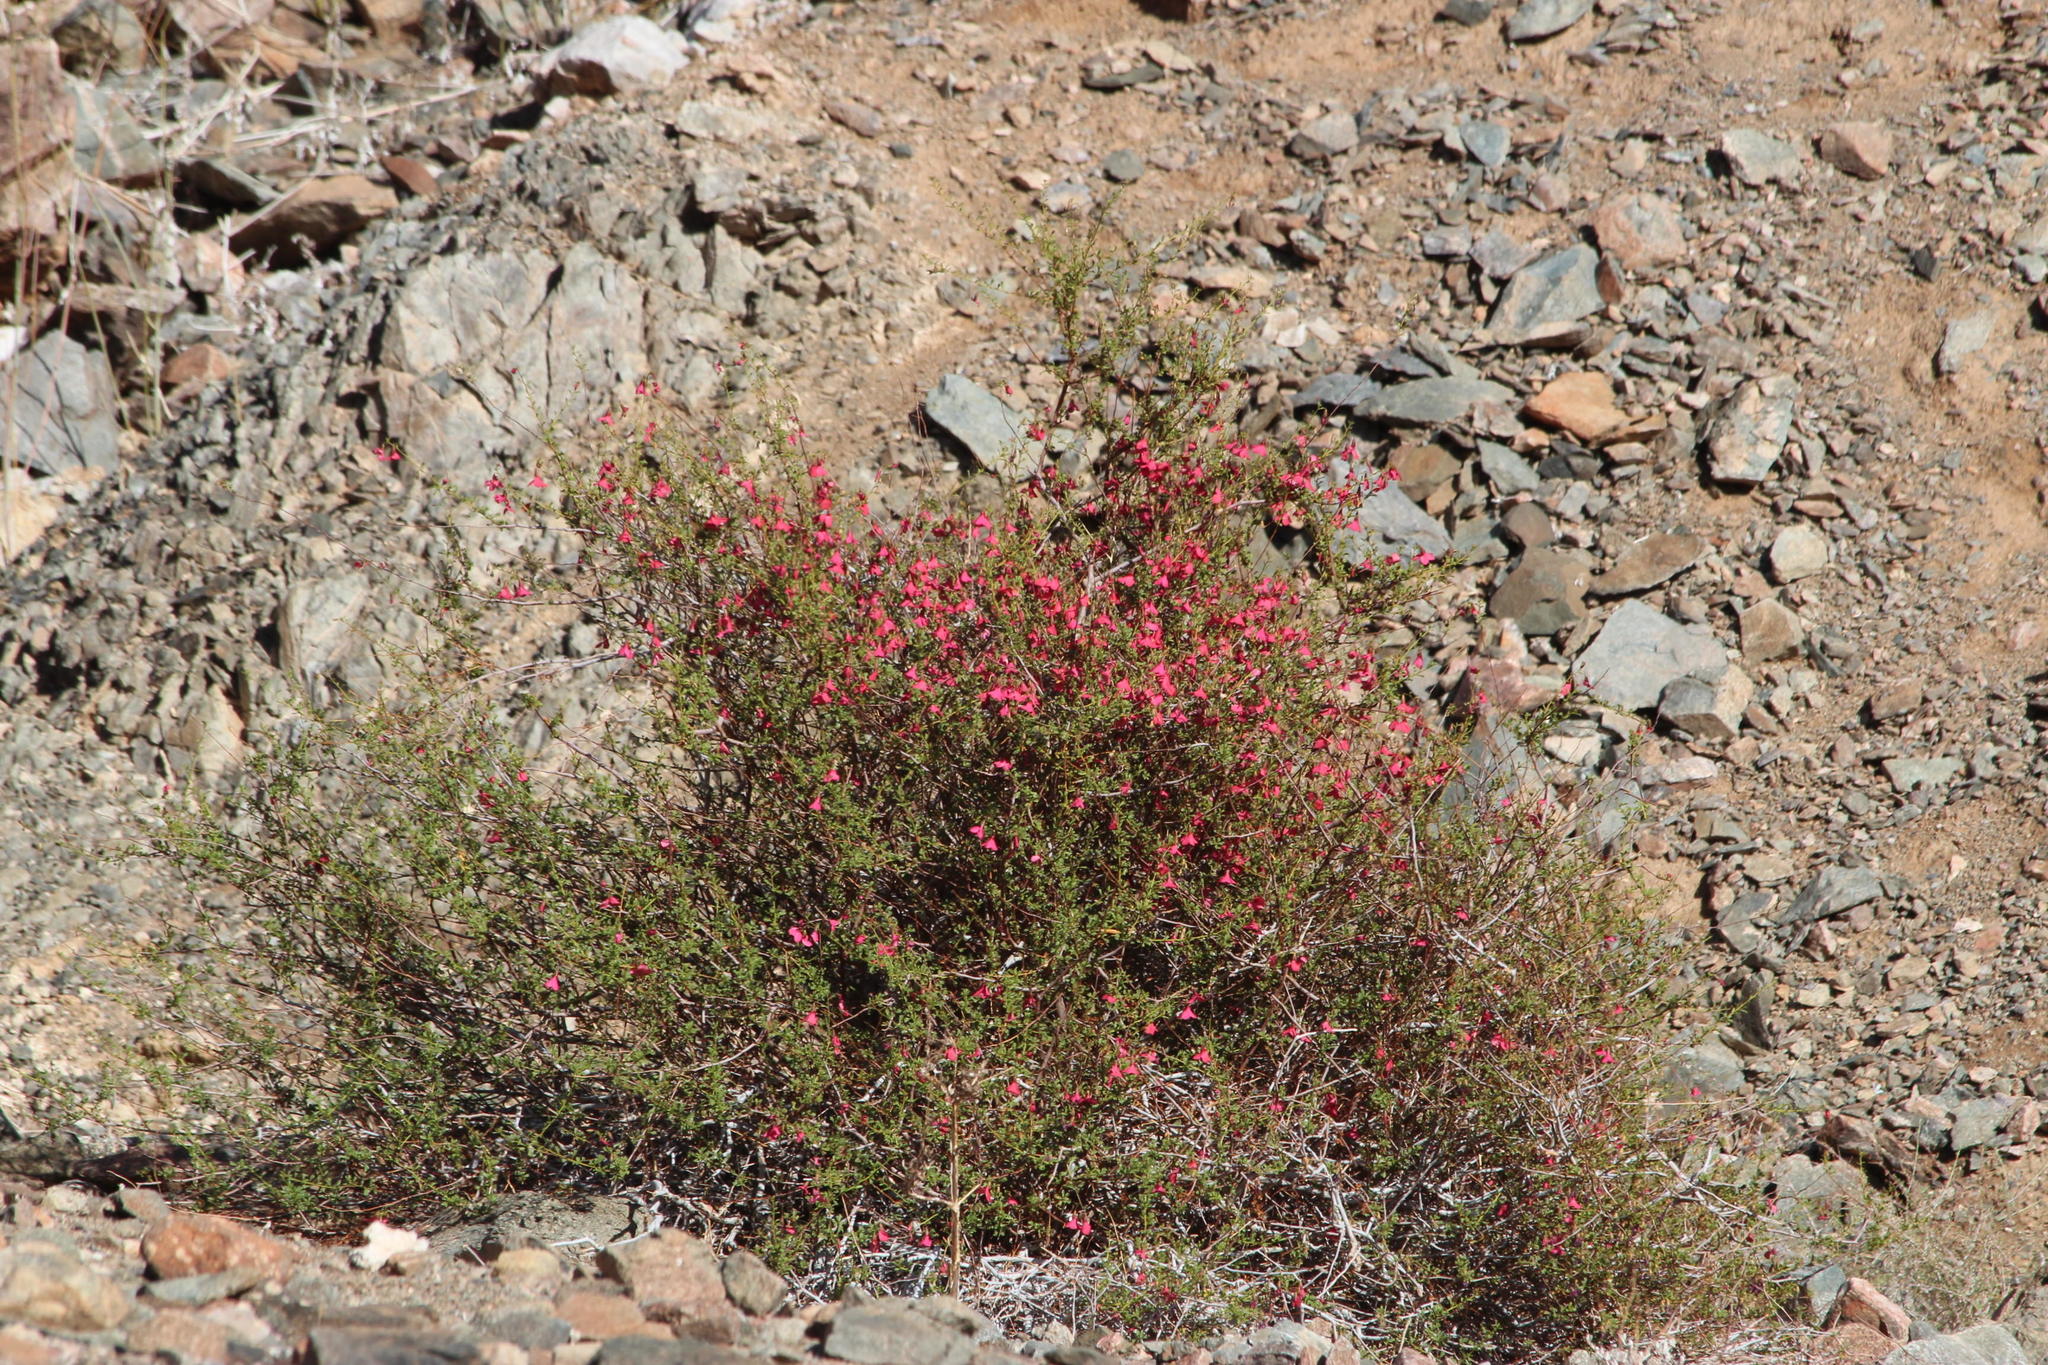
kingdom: Plantae
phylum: Tracheophyta
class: Magnoliopsida
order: Malvales
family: Malvaceae
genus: Hermannia
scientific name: Hermannia stricta
